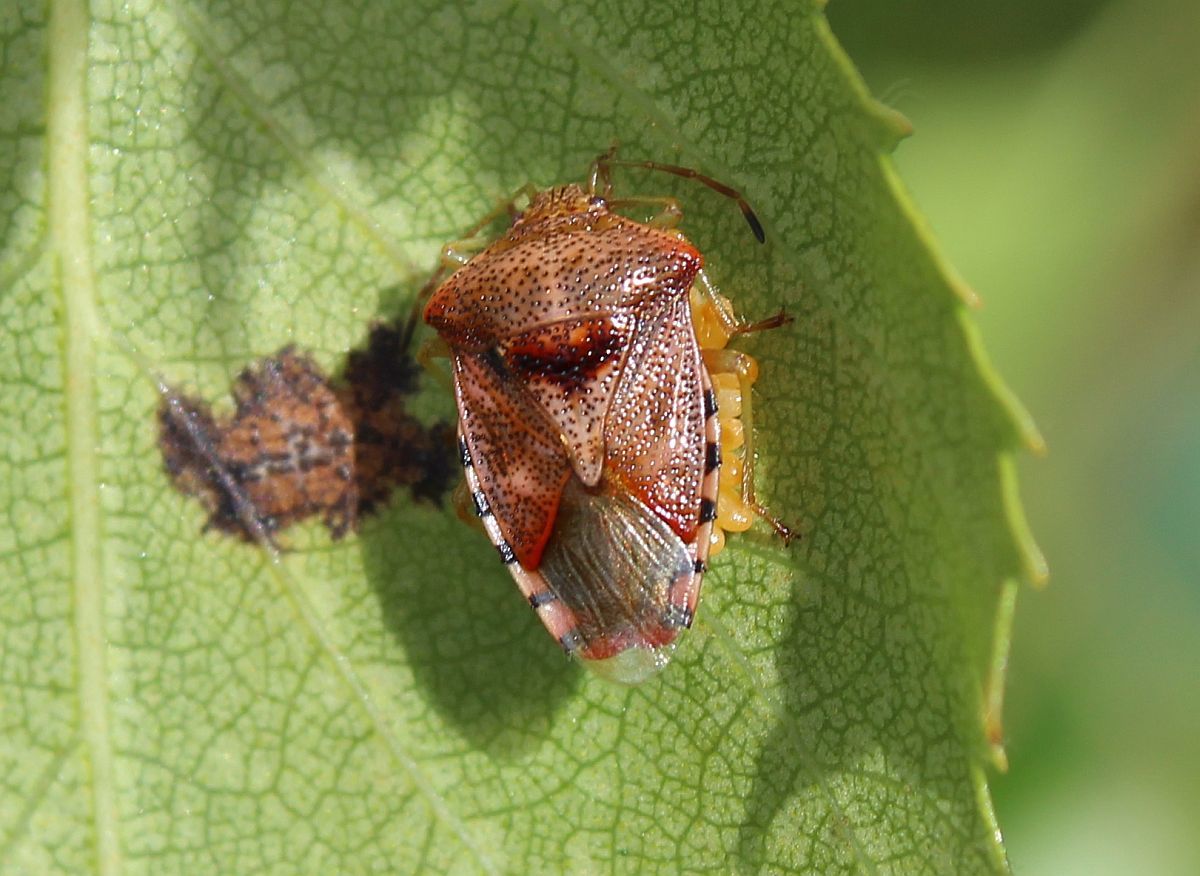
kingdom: Animalia
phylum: Arthropoda
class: Insecta
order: Hemiptera
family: Acanthosomatidae
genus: Elasmucha
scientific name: Elasmucha grisea
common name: Parent bug
